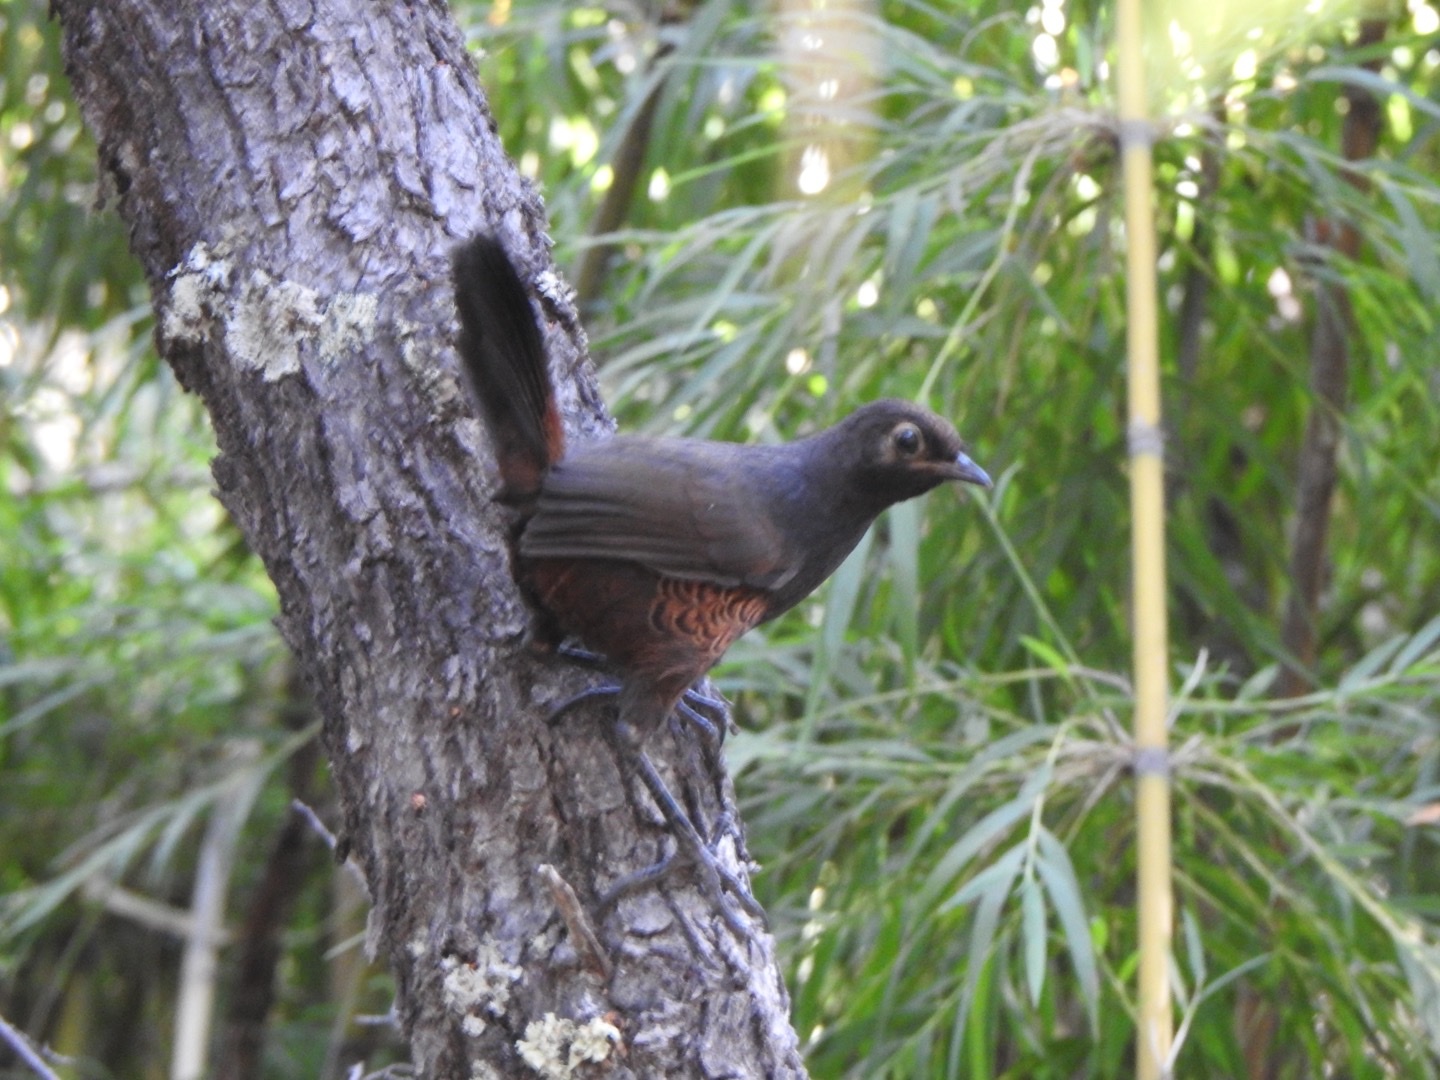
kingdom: Animalia
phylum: Chordata
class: Aves
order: Passeriformes
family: Rhinocryptidae
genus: Pteroptochos
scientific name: Pteroptochos tarnii
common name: Black-throated huet-huet
